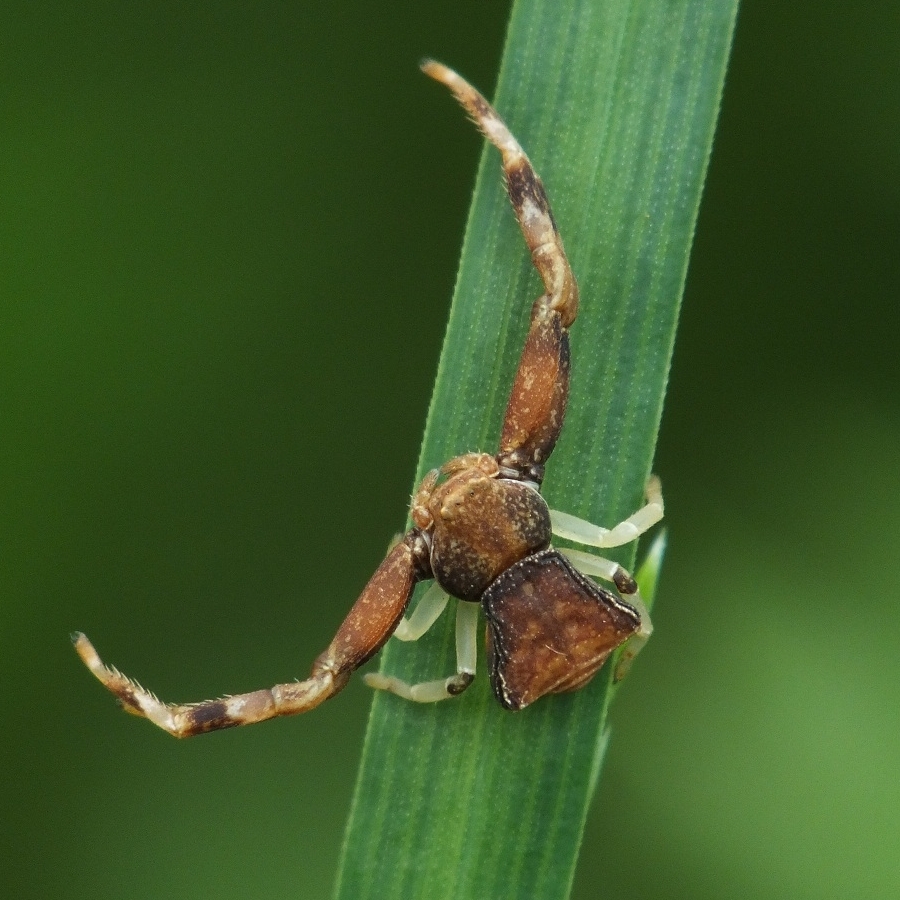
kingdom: Animalia
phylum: Arthropoda
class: Arachnida
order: Araneae
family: Thomisidae
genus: Pistius
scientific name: Pistius truncatus
